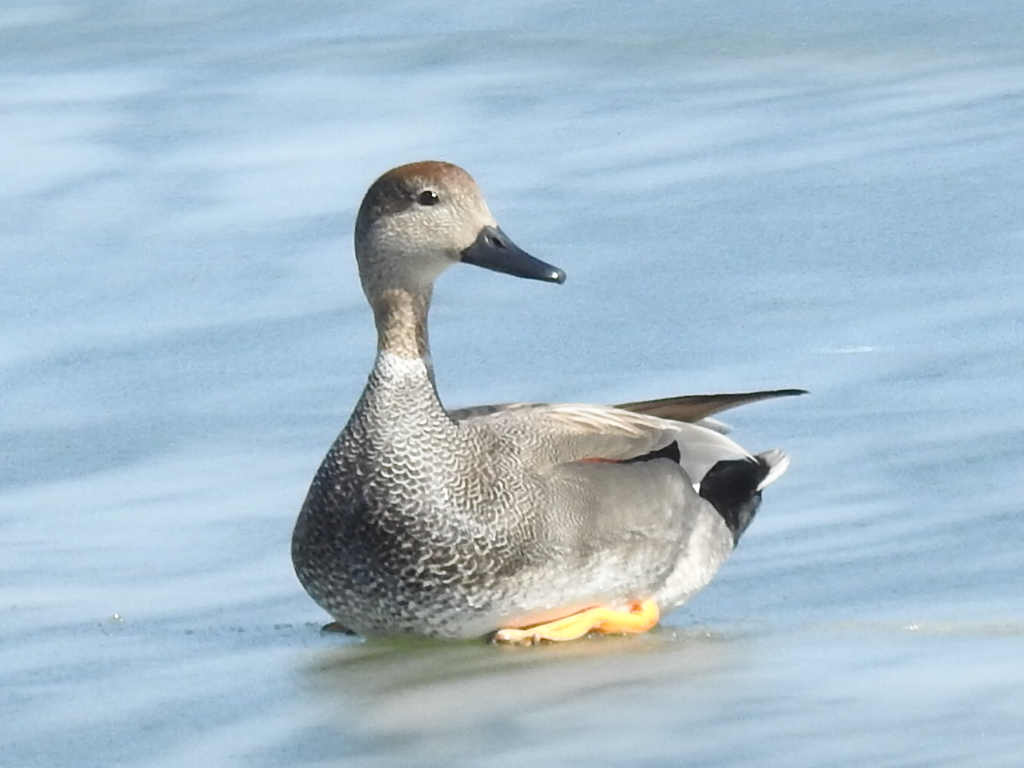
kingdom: Animalia
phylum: Chordata
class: Aves
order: Anseriformes
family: Anatidae
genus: Mareca
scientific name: Mareca strepera
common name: Gadwall
